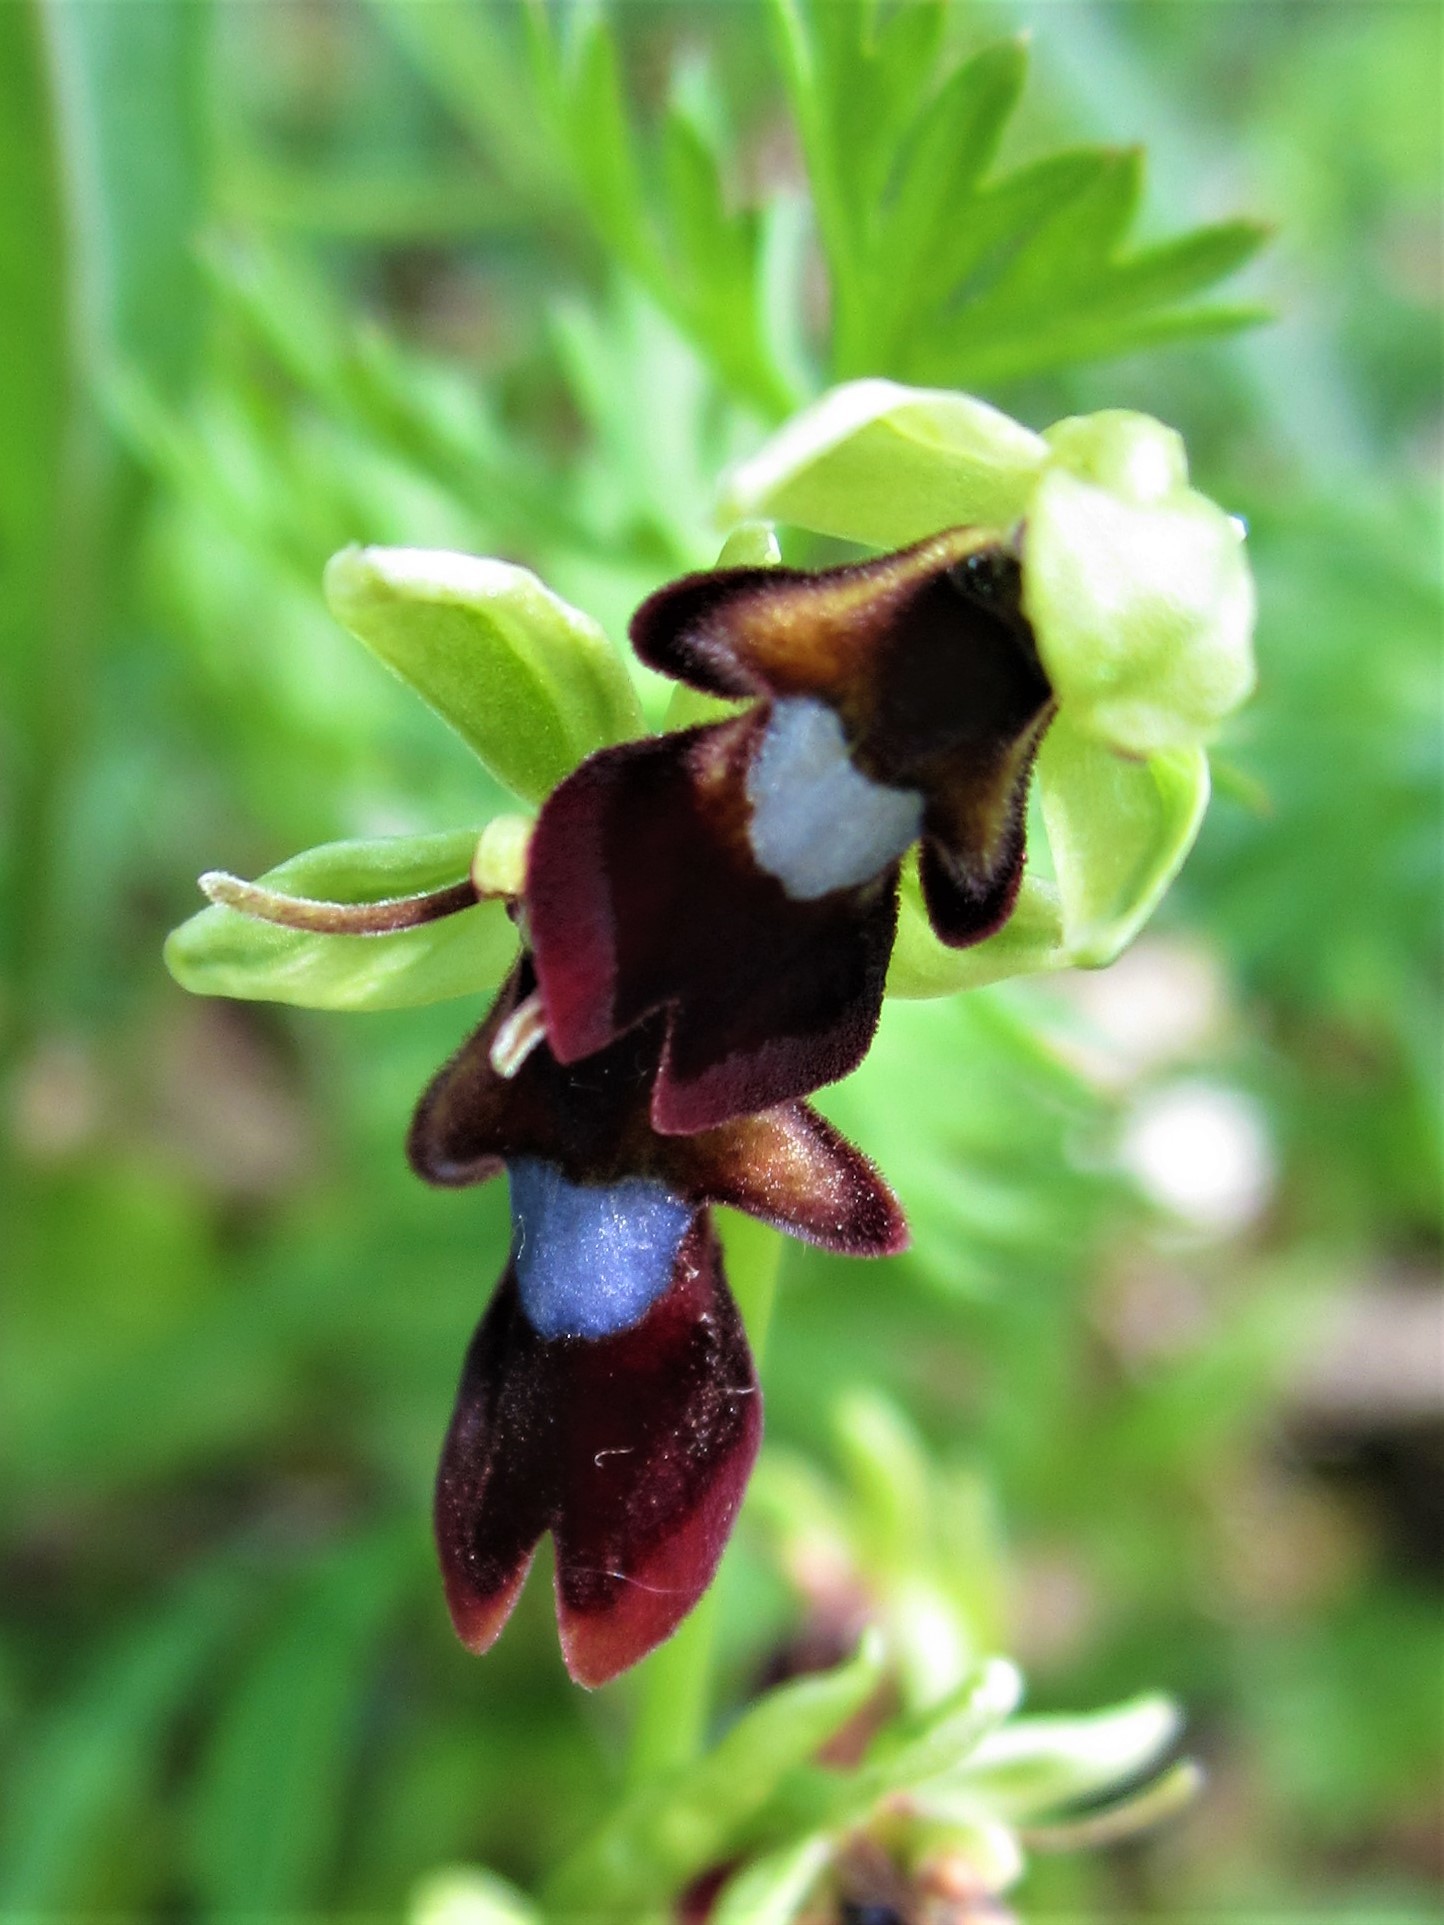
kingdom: Plantae
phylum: Tracheophyta
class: Liliopsida
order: Asparagales
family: Orchidaceae
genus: Ophrys
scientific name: Ophrys insectifera
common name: Fly orchid
